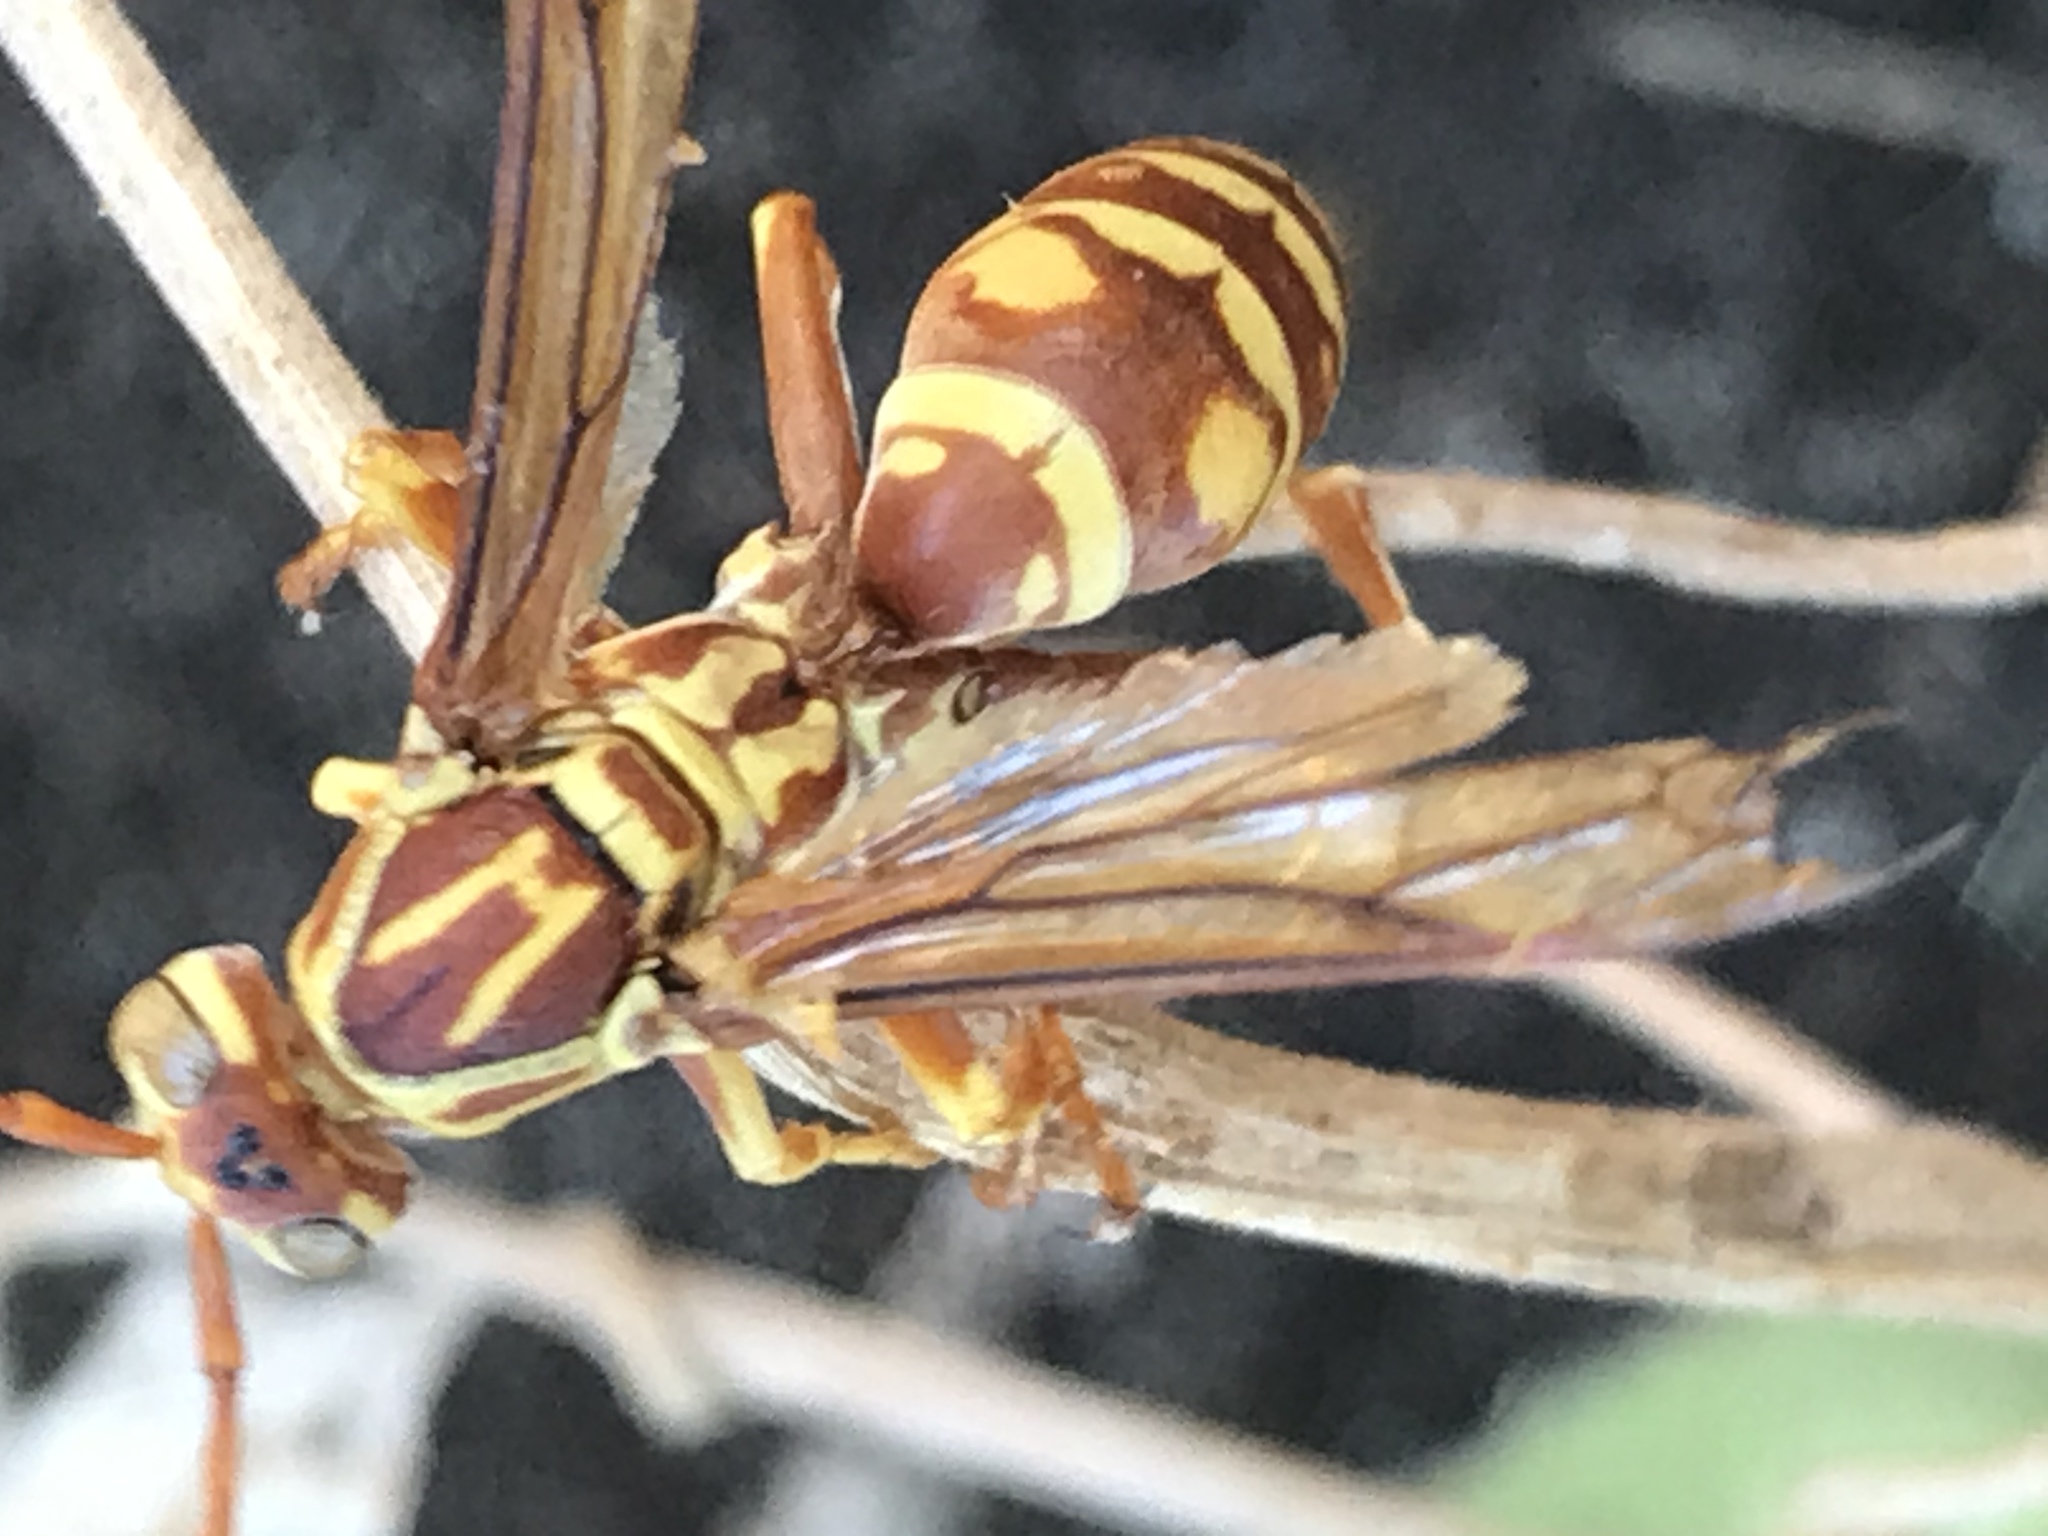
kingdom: Animalia
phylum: Arthropoda
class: Insecta
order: Hymenoptera
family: Eumenidae
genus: Polistes
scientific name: Polistes apachus
